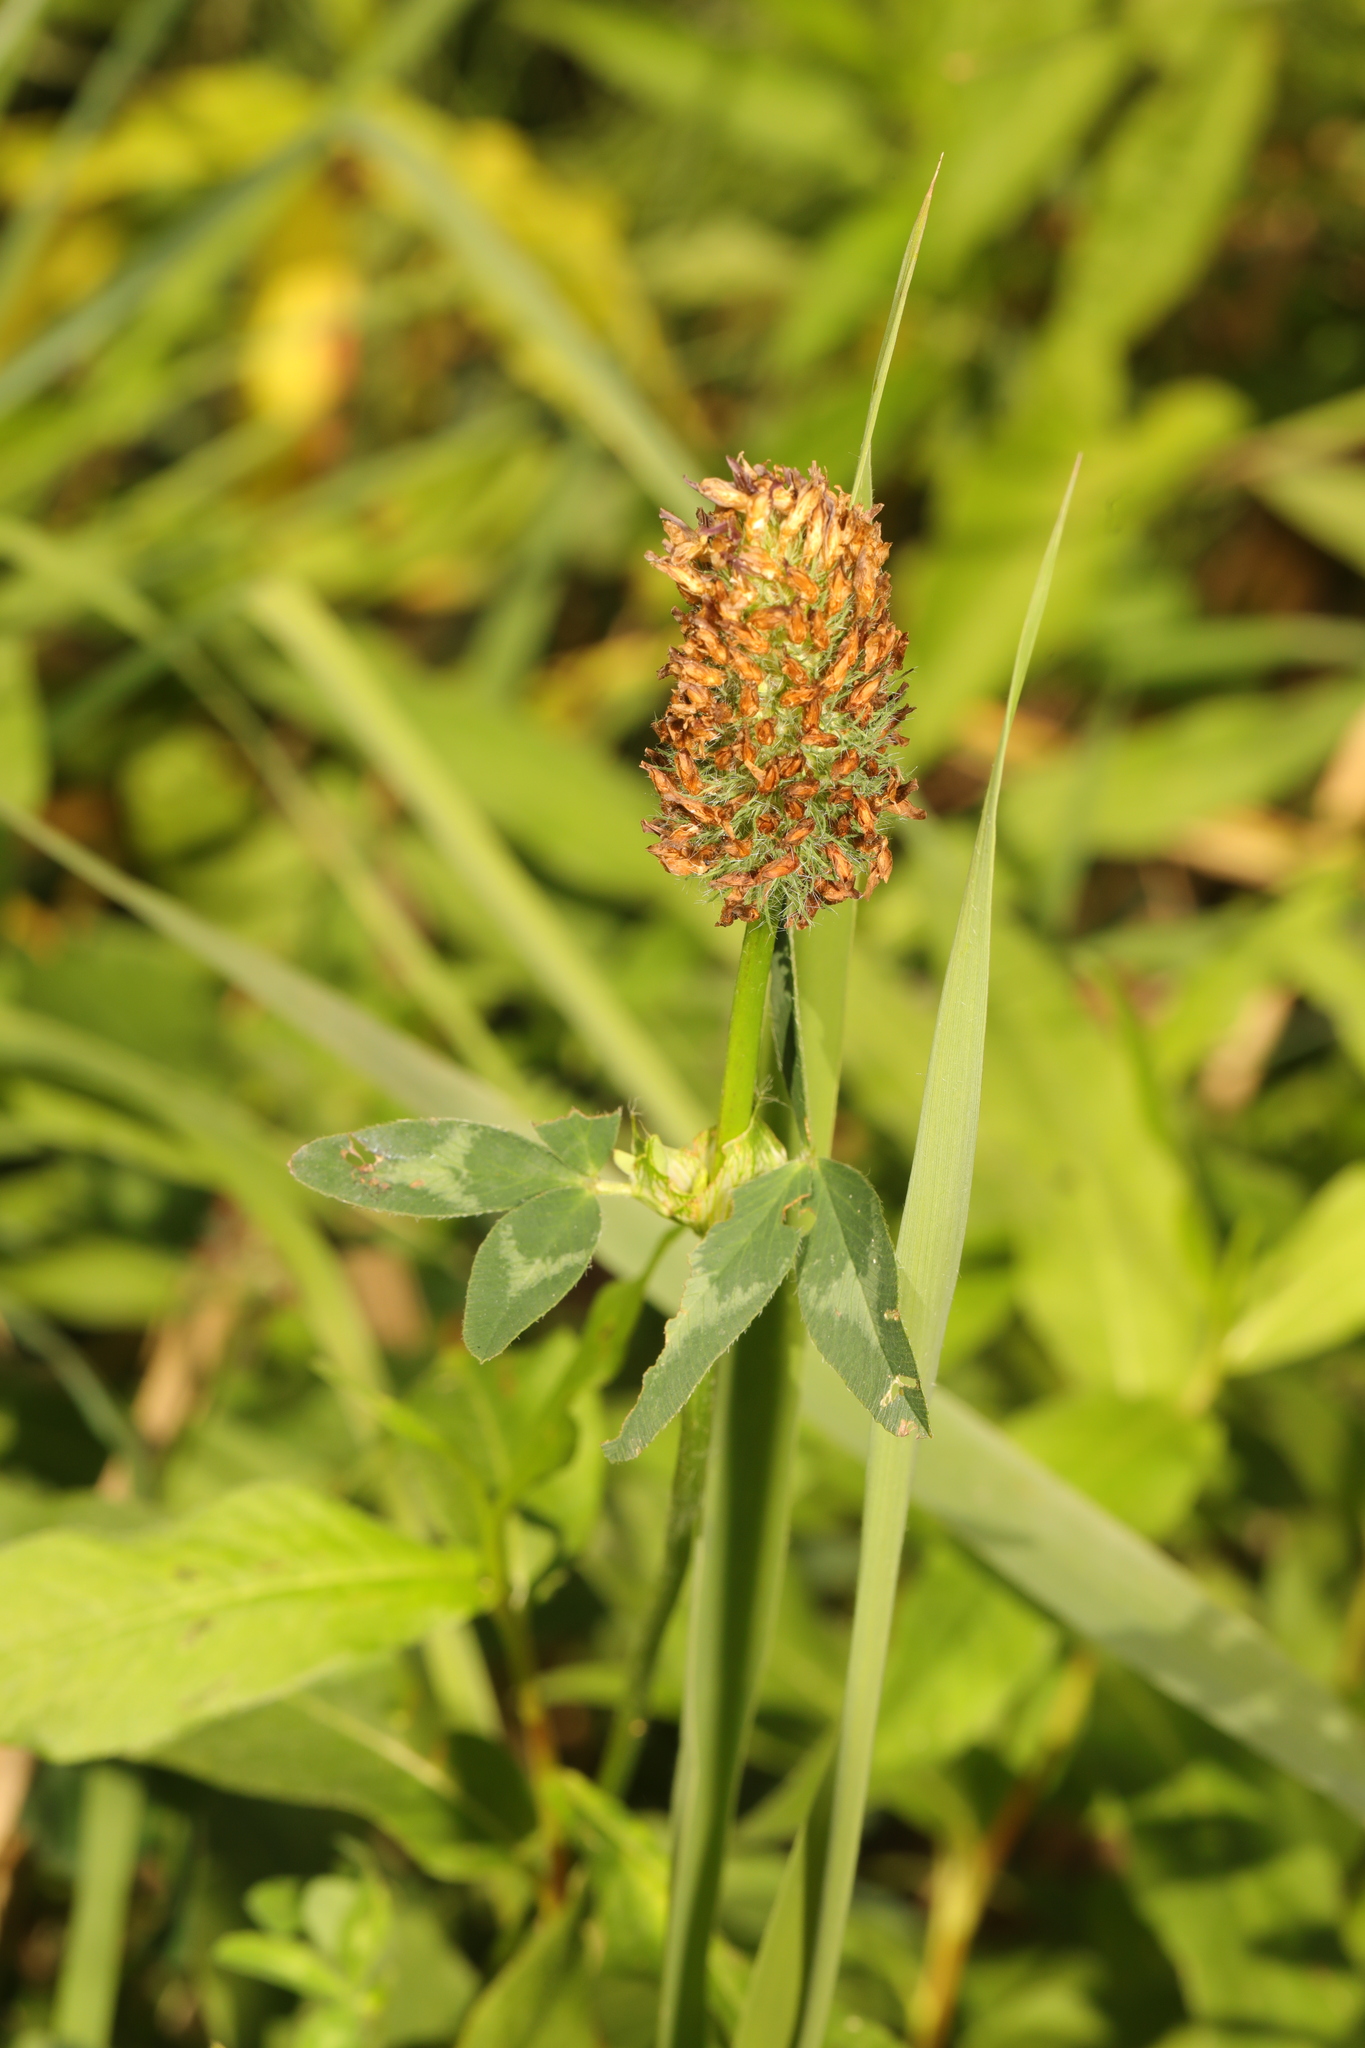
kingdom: Plantae
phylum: Tracheophyta
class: Magnoliopsida
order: Fabales
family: Fabaceae
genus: Trifolium
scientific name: Trifolium pratense
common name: Red clover
